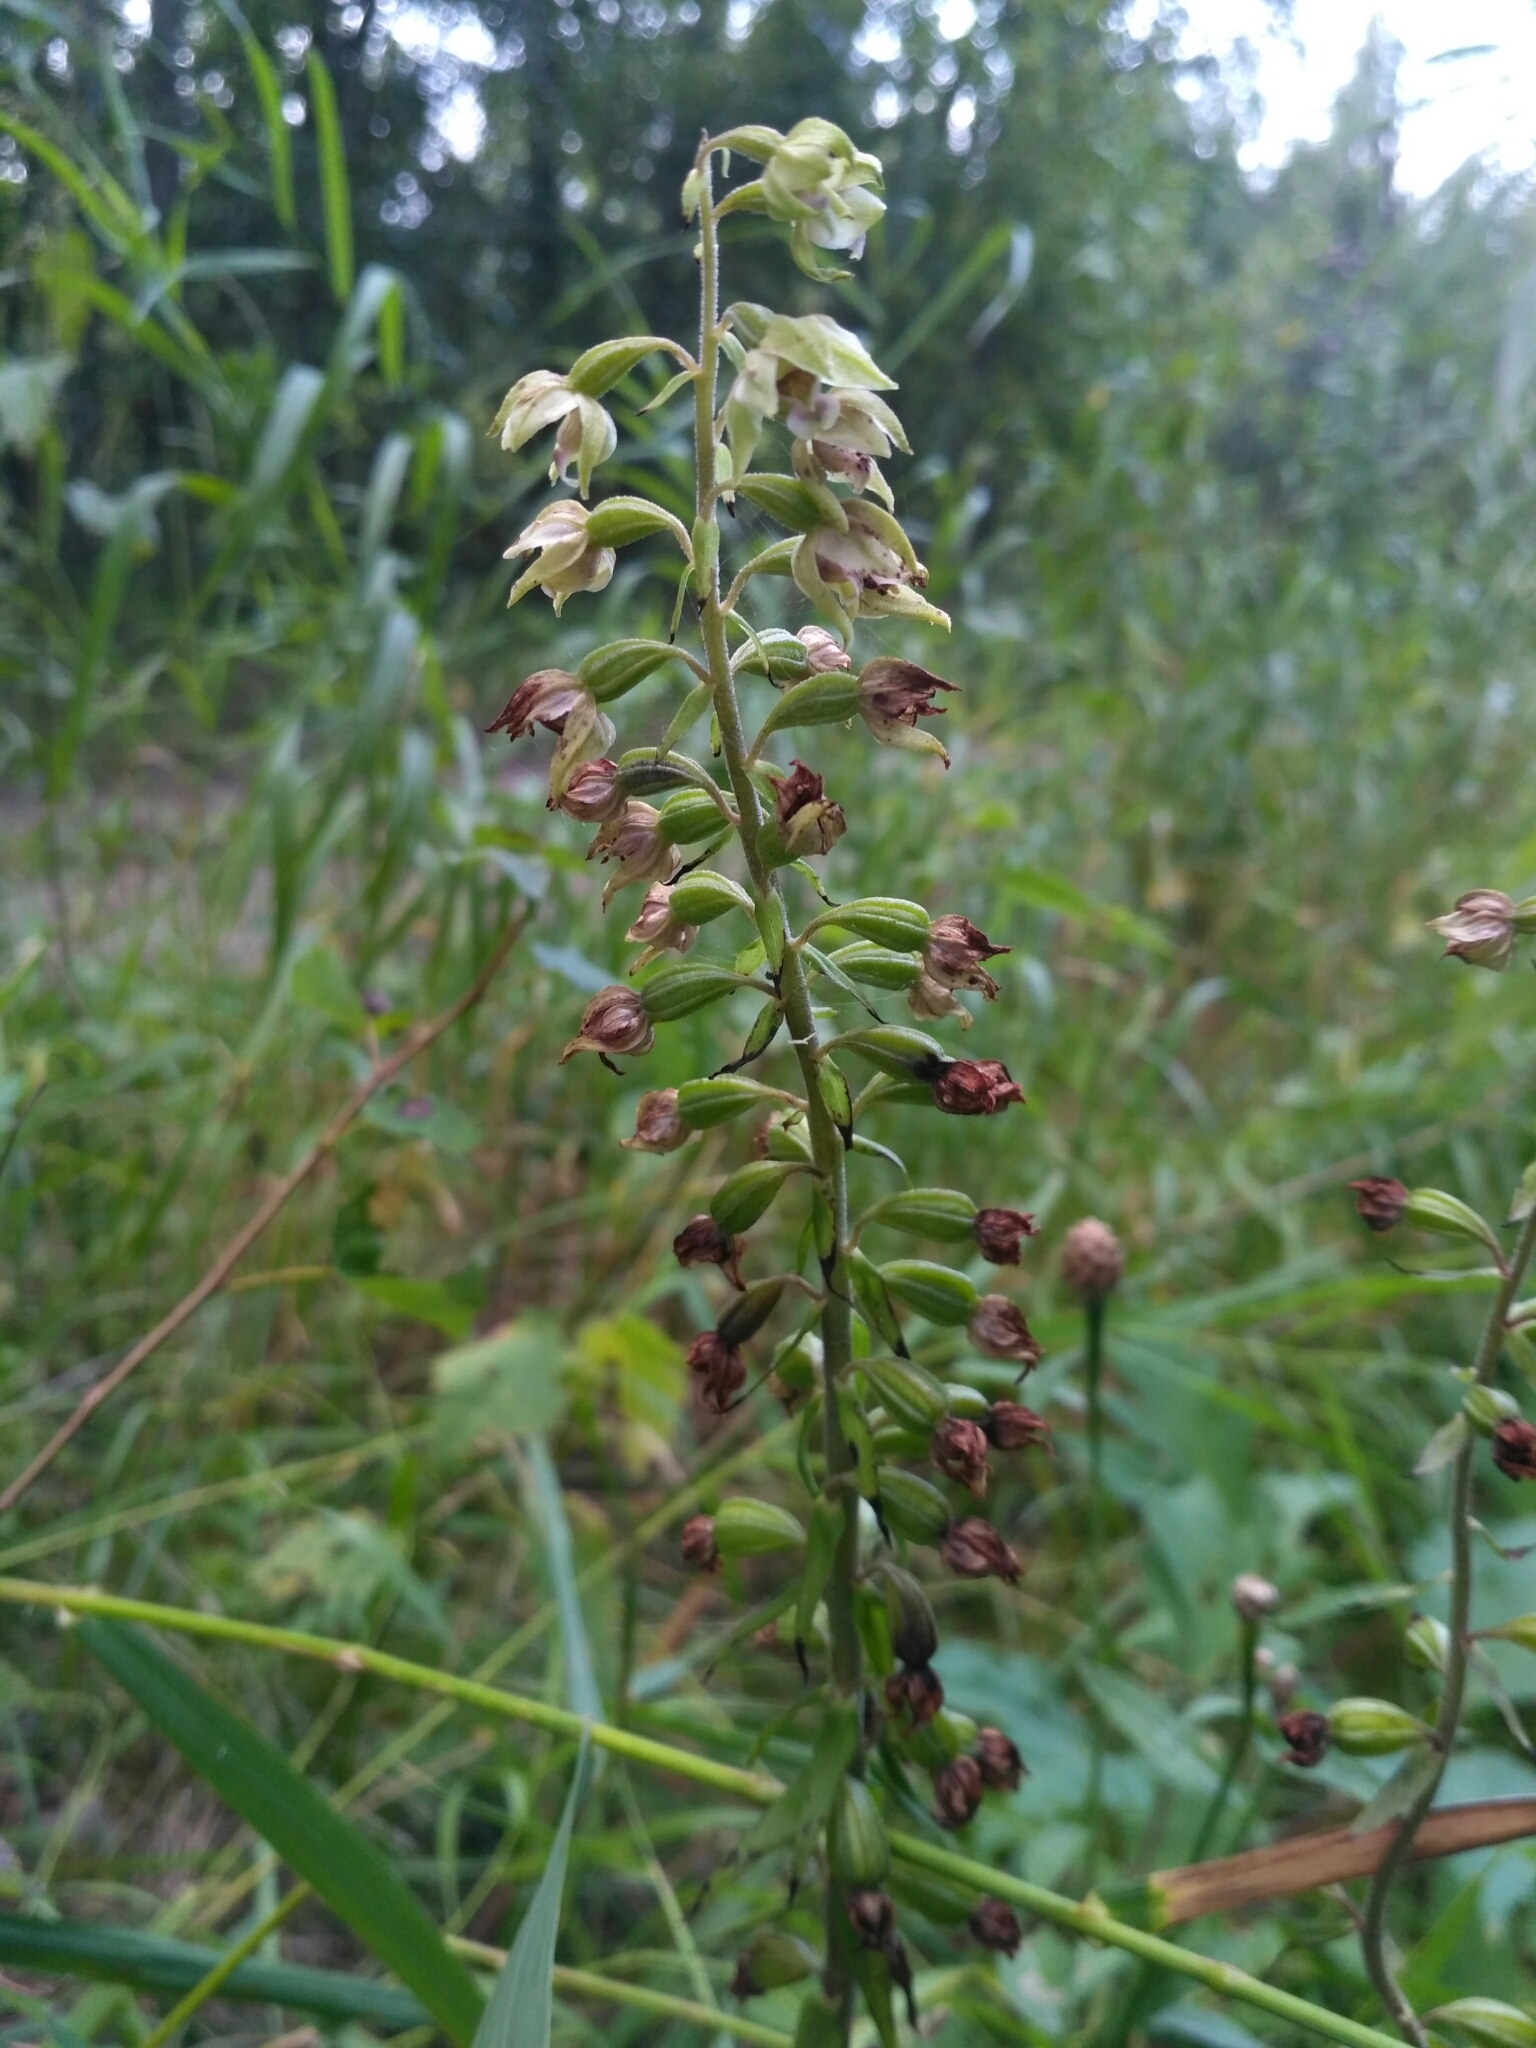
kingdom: Plantae
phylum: Tracheophyta
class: Liliopsida
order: Asparagales
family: Orchidaceae
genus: Epipactis
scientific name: Epipactis helleborine
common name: Broad-leaved helleborine
